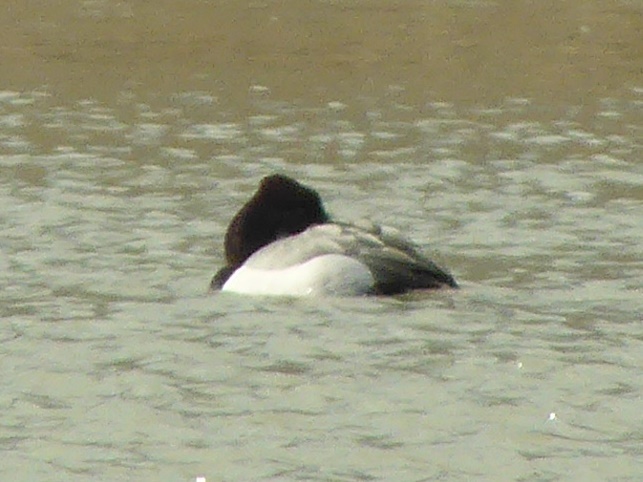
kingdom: Animalia
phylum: Chordata
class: Aves
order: Anseriformes
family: Anatidae
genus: Aythya
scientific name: Aythya
